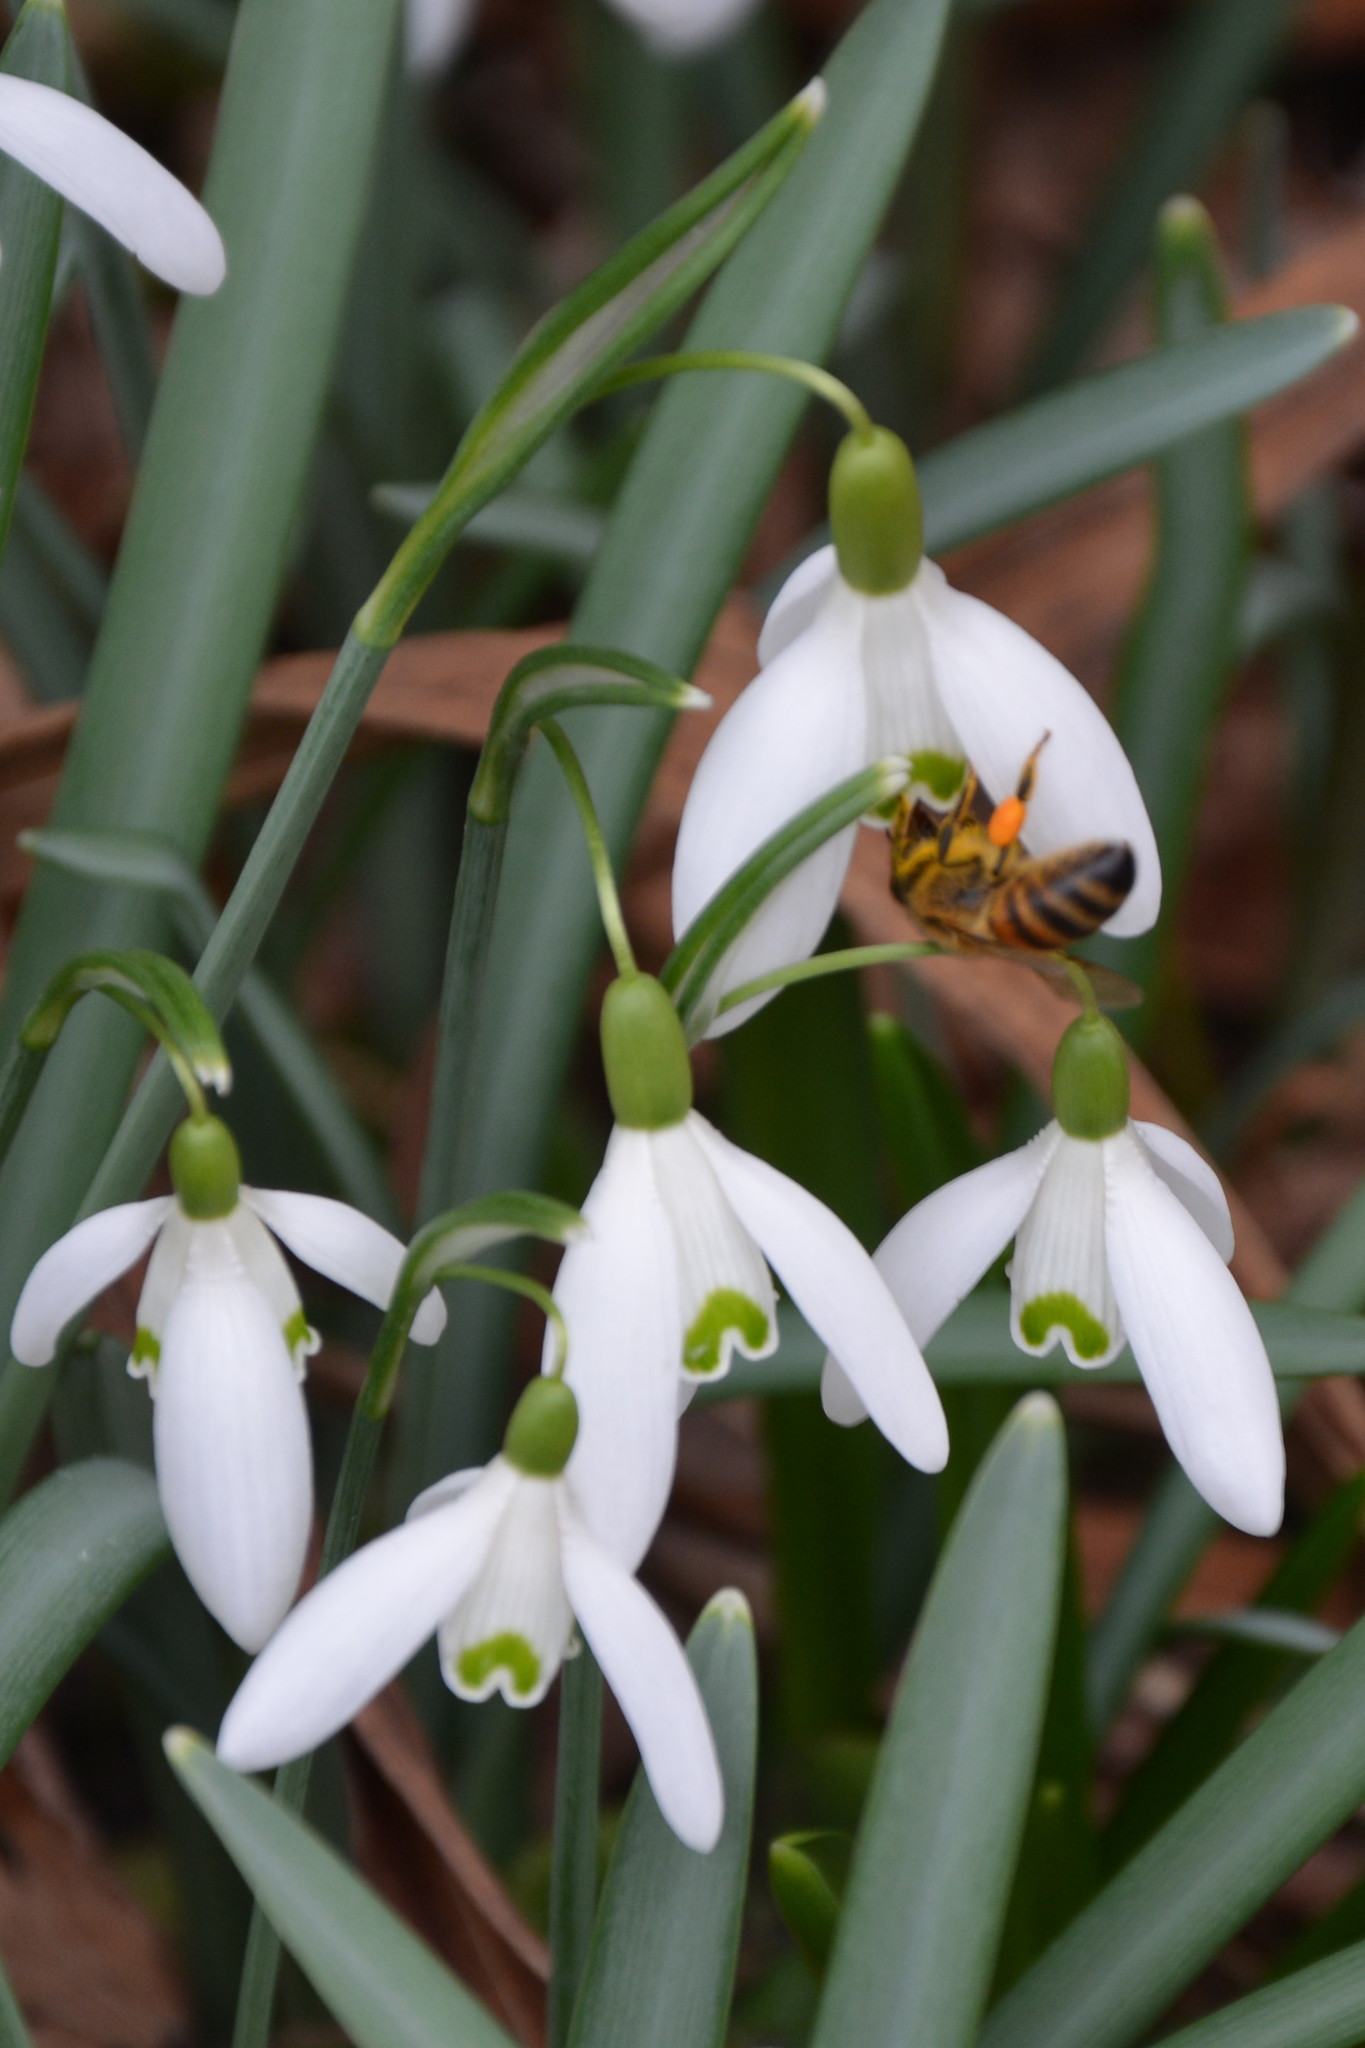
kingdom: Animalia
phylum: Arthropoda
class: Insecta
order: Hymenoptera
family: Apidae
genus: Apis
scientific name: Apis mellifera
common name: Honey bee
